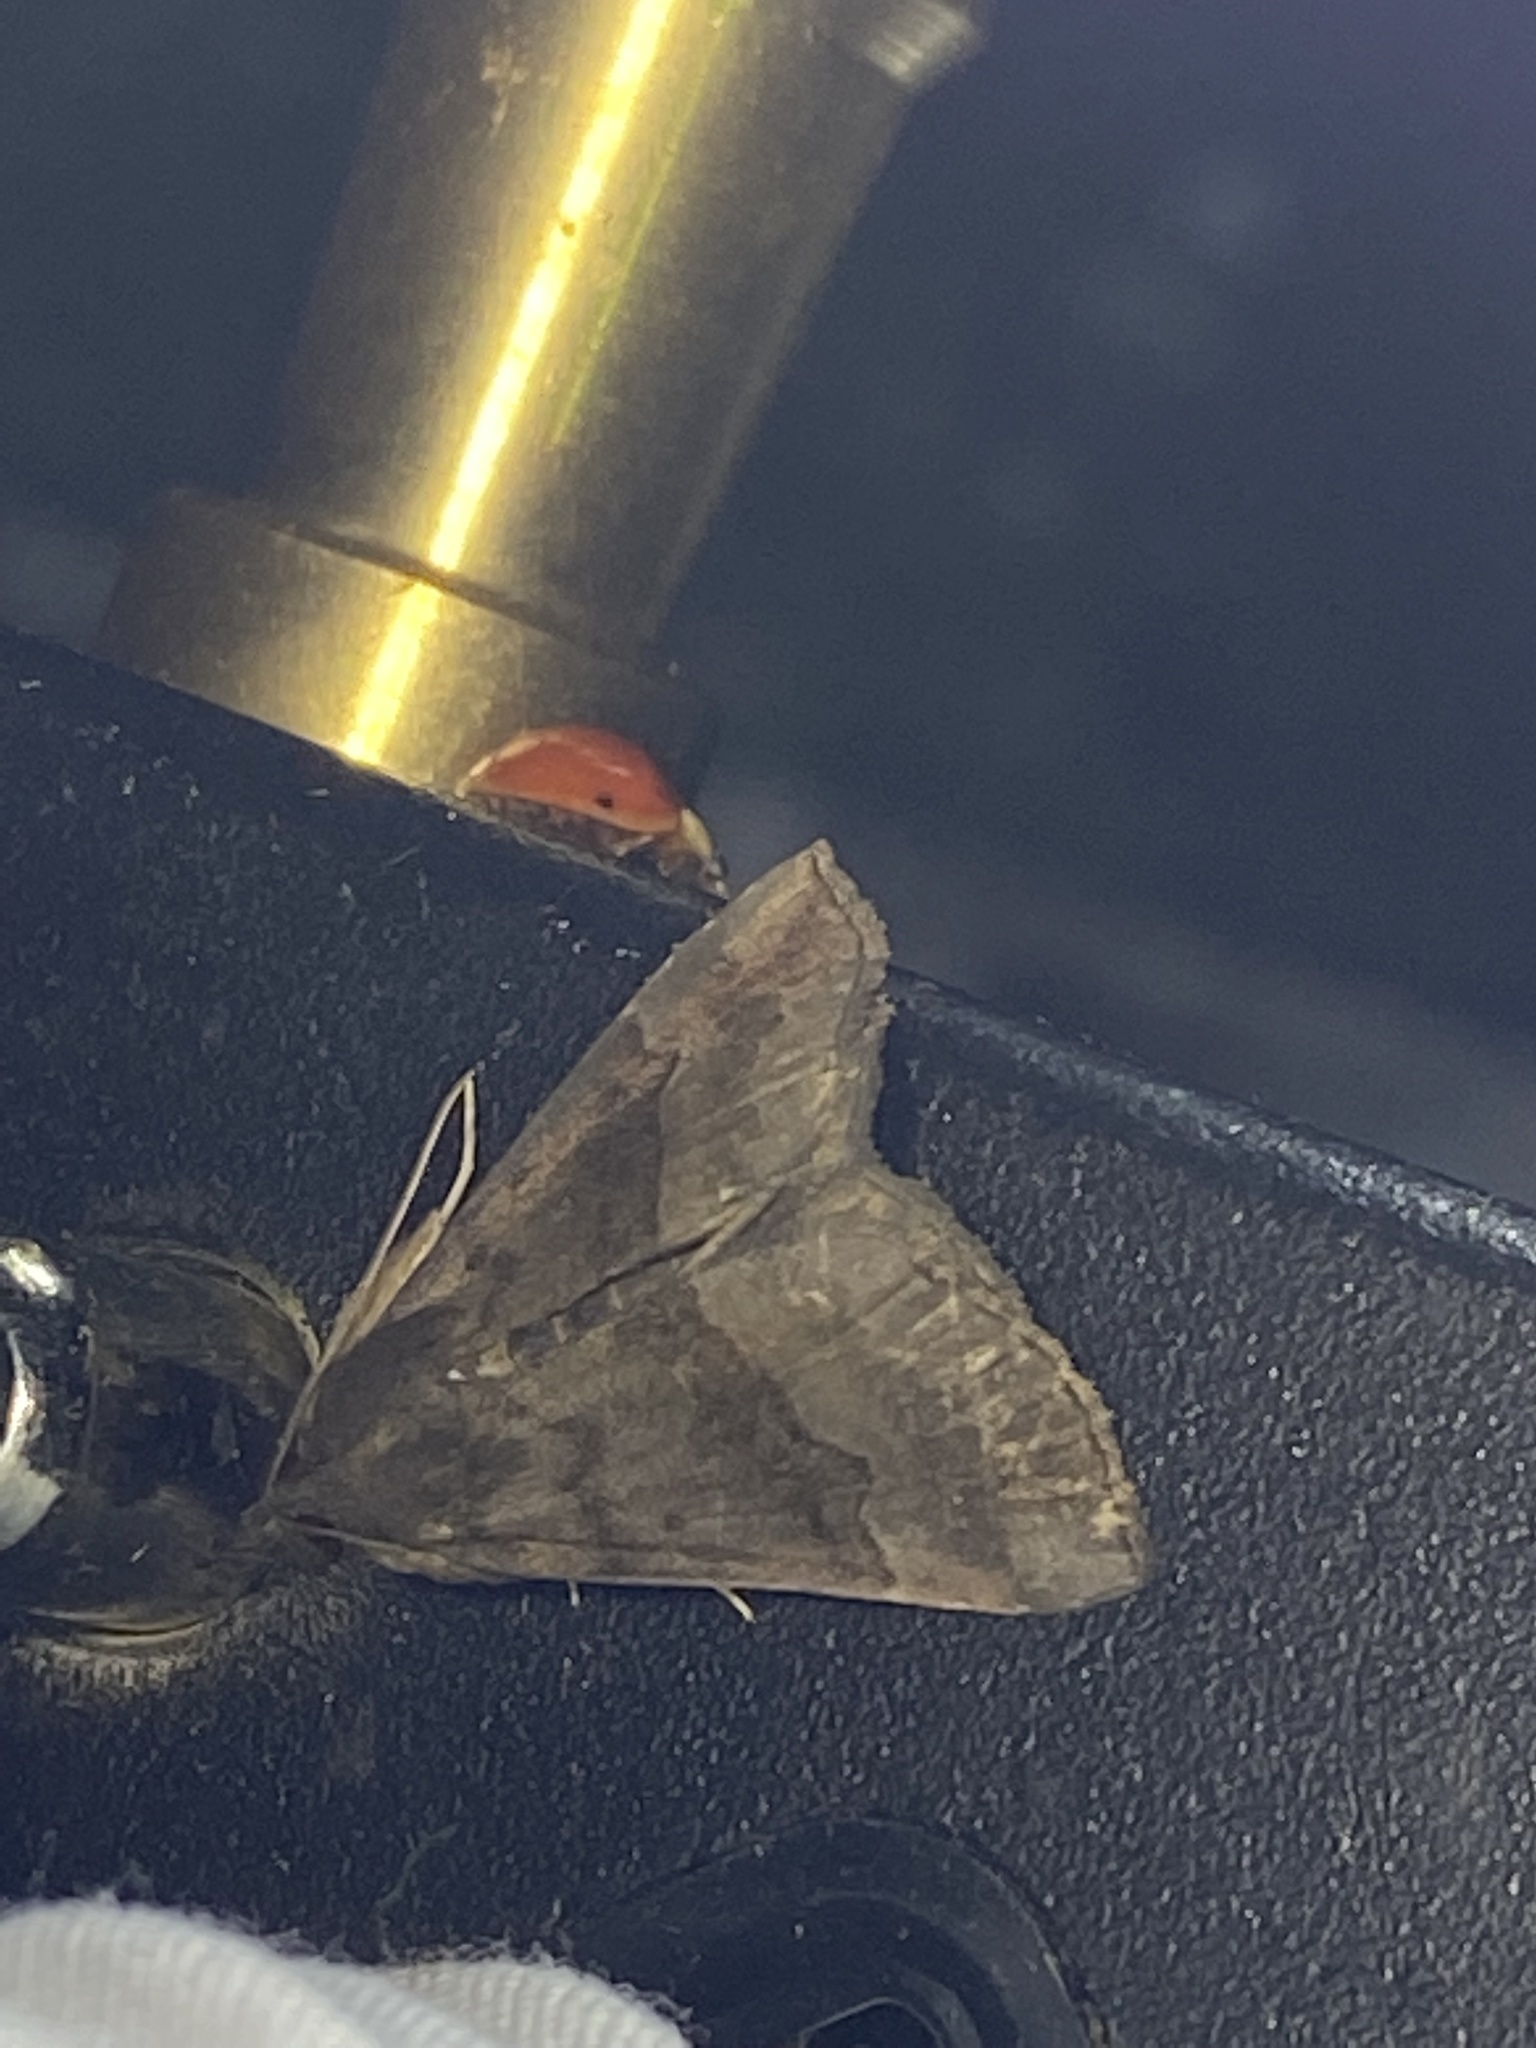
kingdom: Animalia
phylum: Arthropoda
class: Insecta
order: Lepidoptera
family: Erebidae
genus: Hypena
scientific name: Hypena madefactalis
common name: Gray-edged snout
